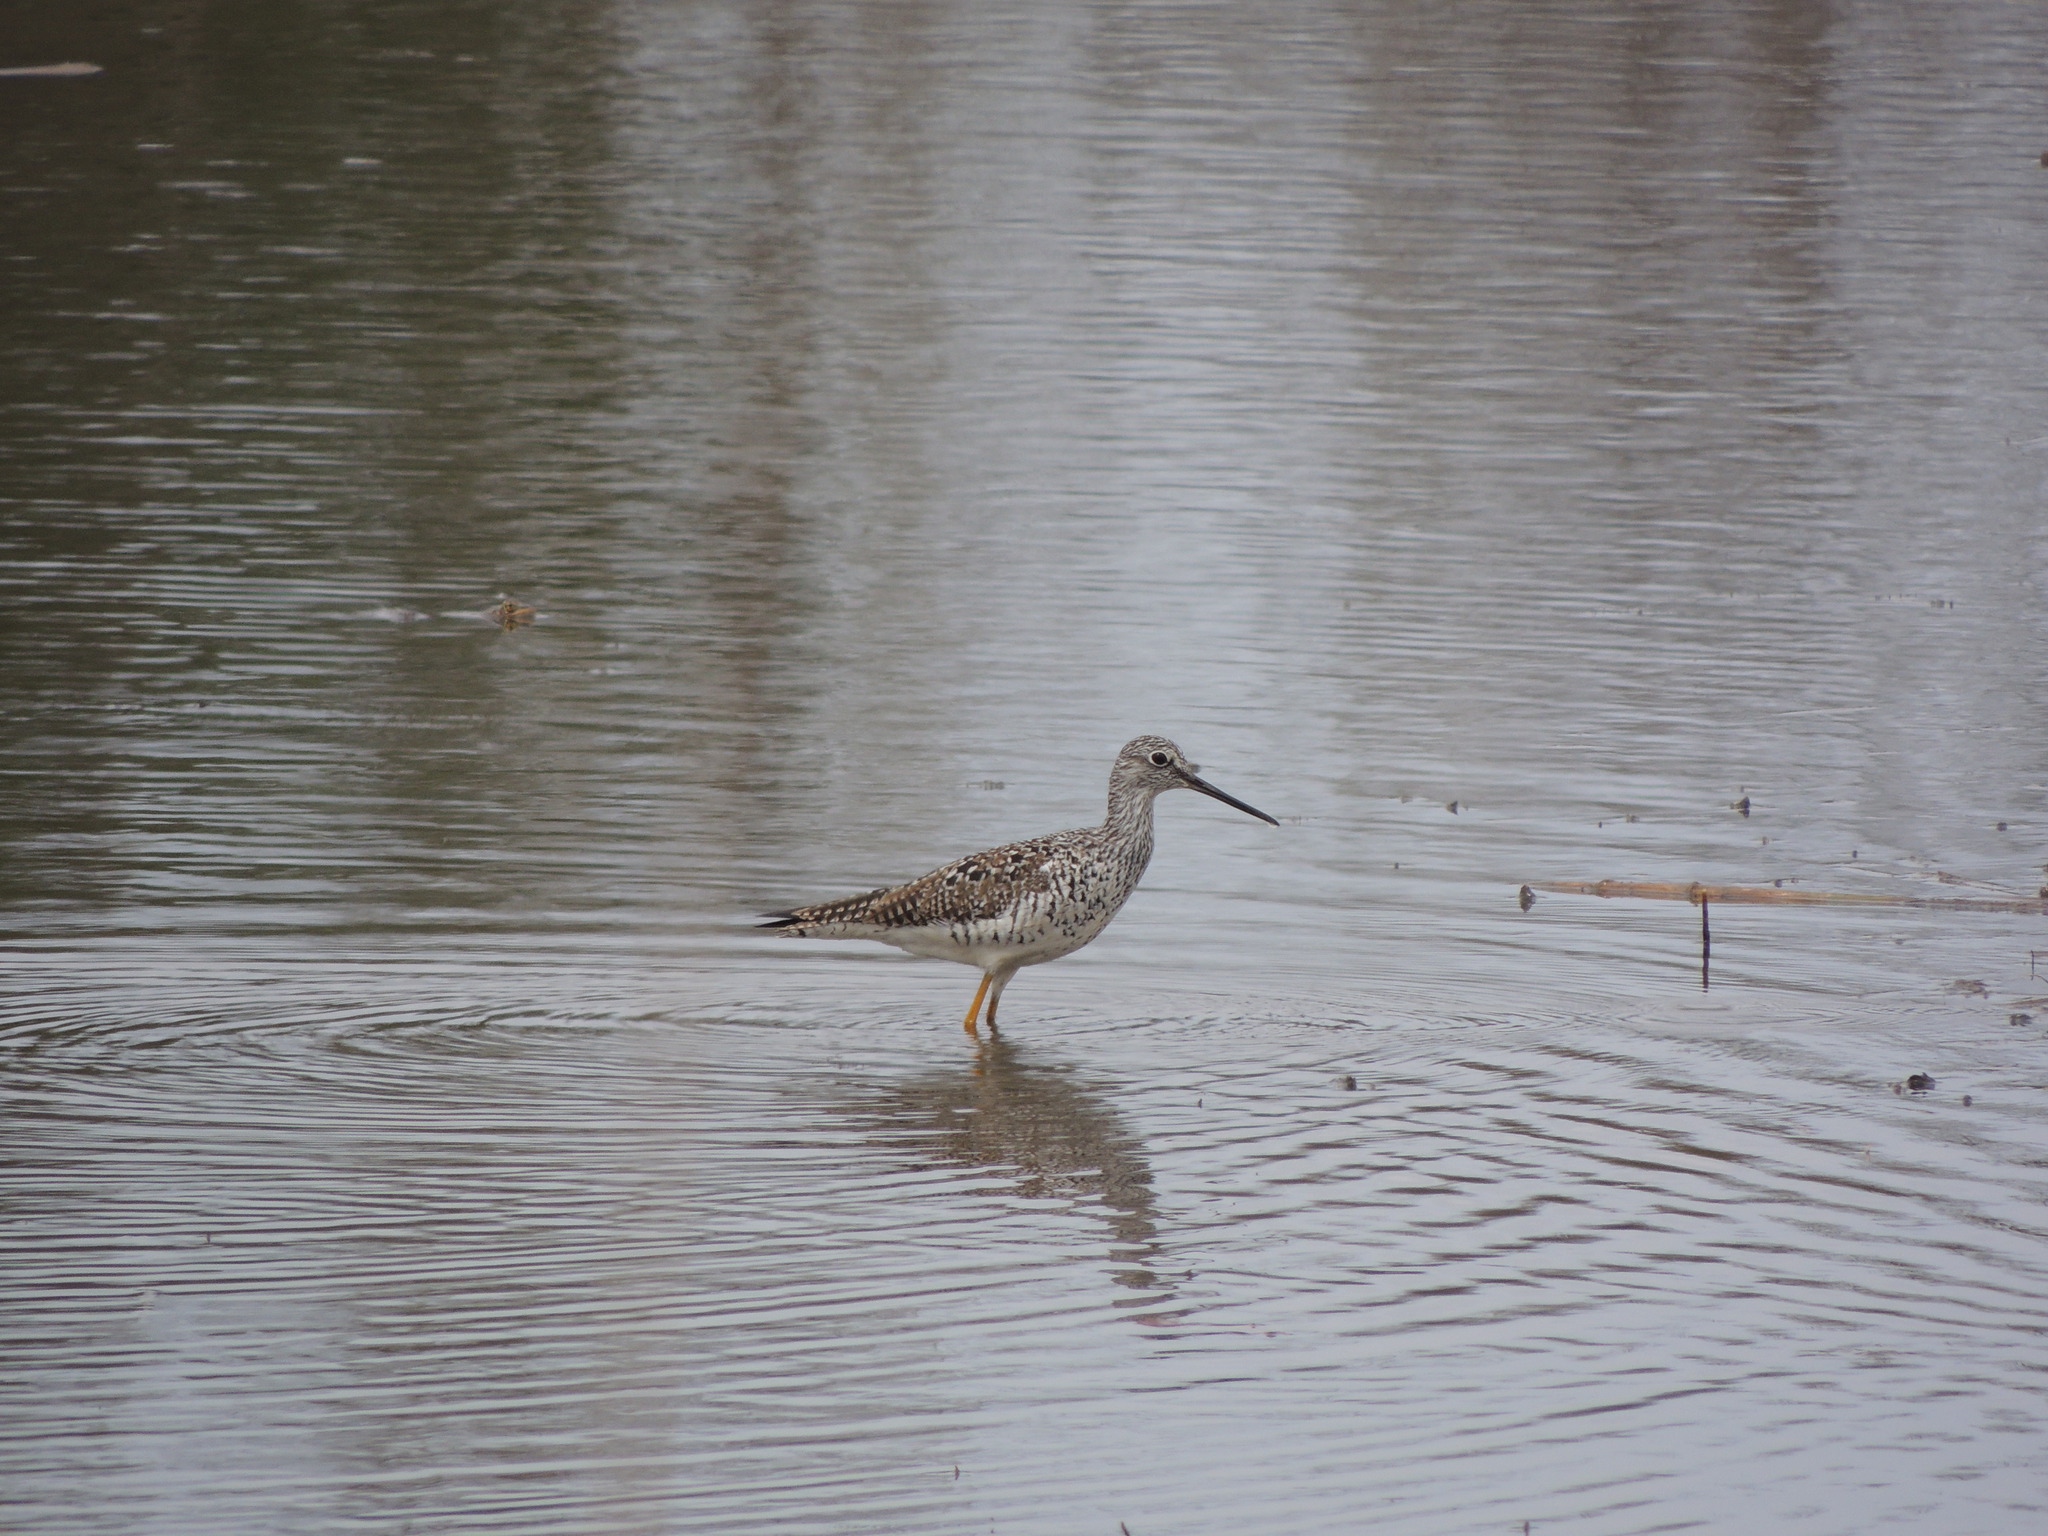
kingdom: Animalia
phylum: Chordata
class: Aves
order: Charadriiformes
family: Scolopacidae
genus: Tringa
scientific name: Tringa melanoleuca
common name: Greater yellowlegs
